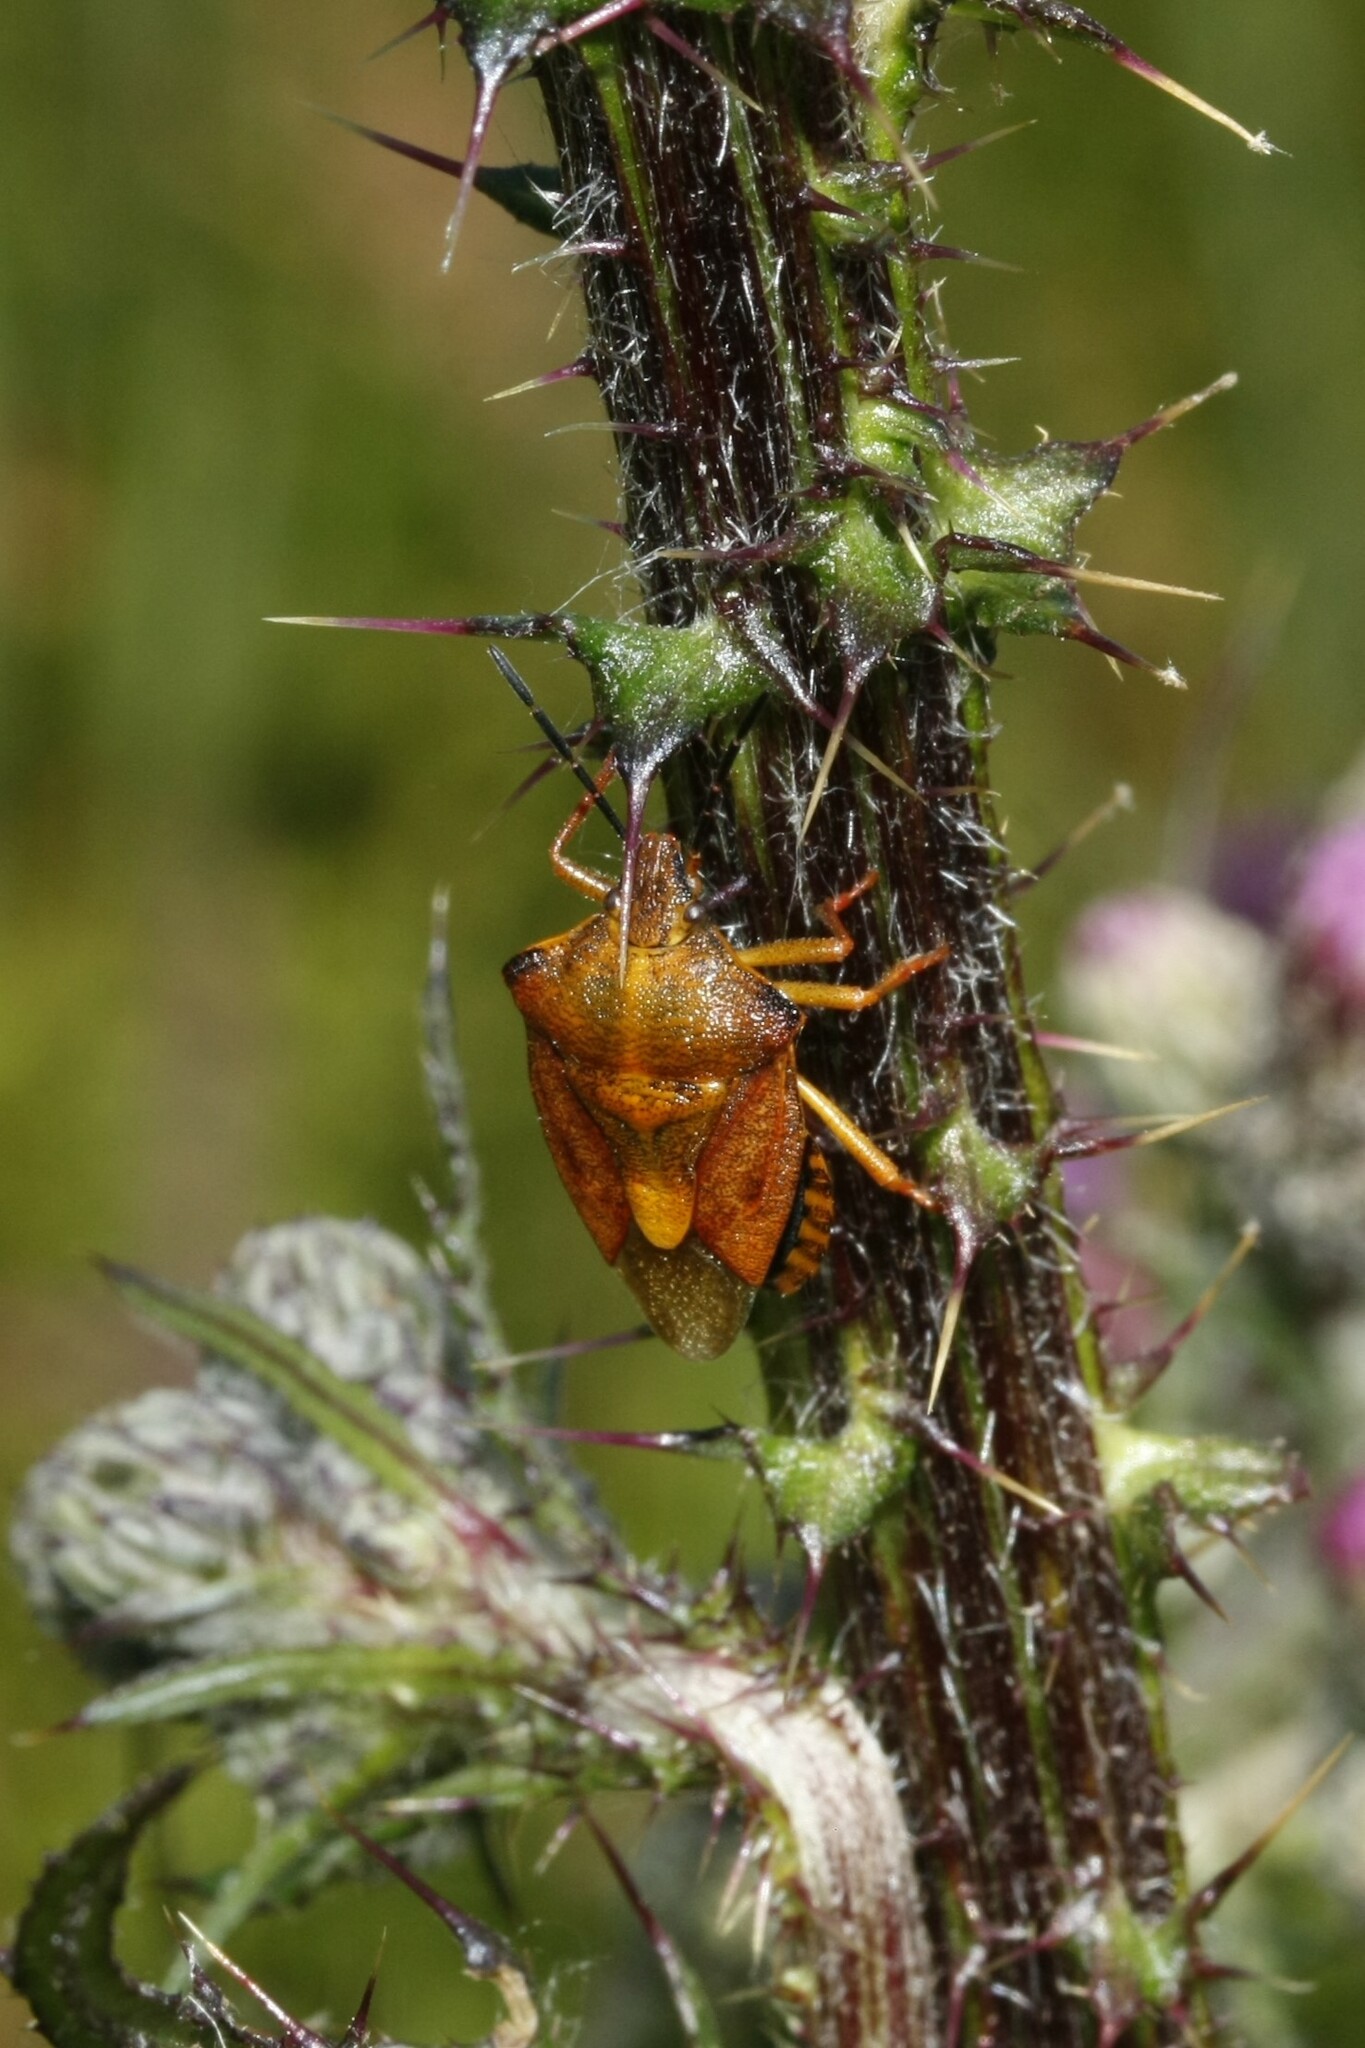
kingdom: Animalia
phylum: Arthropoda
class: Insecta
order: Hemiptera
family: Pentatomidae
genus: Carpocoris
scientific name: Carpocoris purpureipennis
